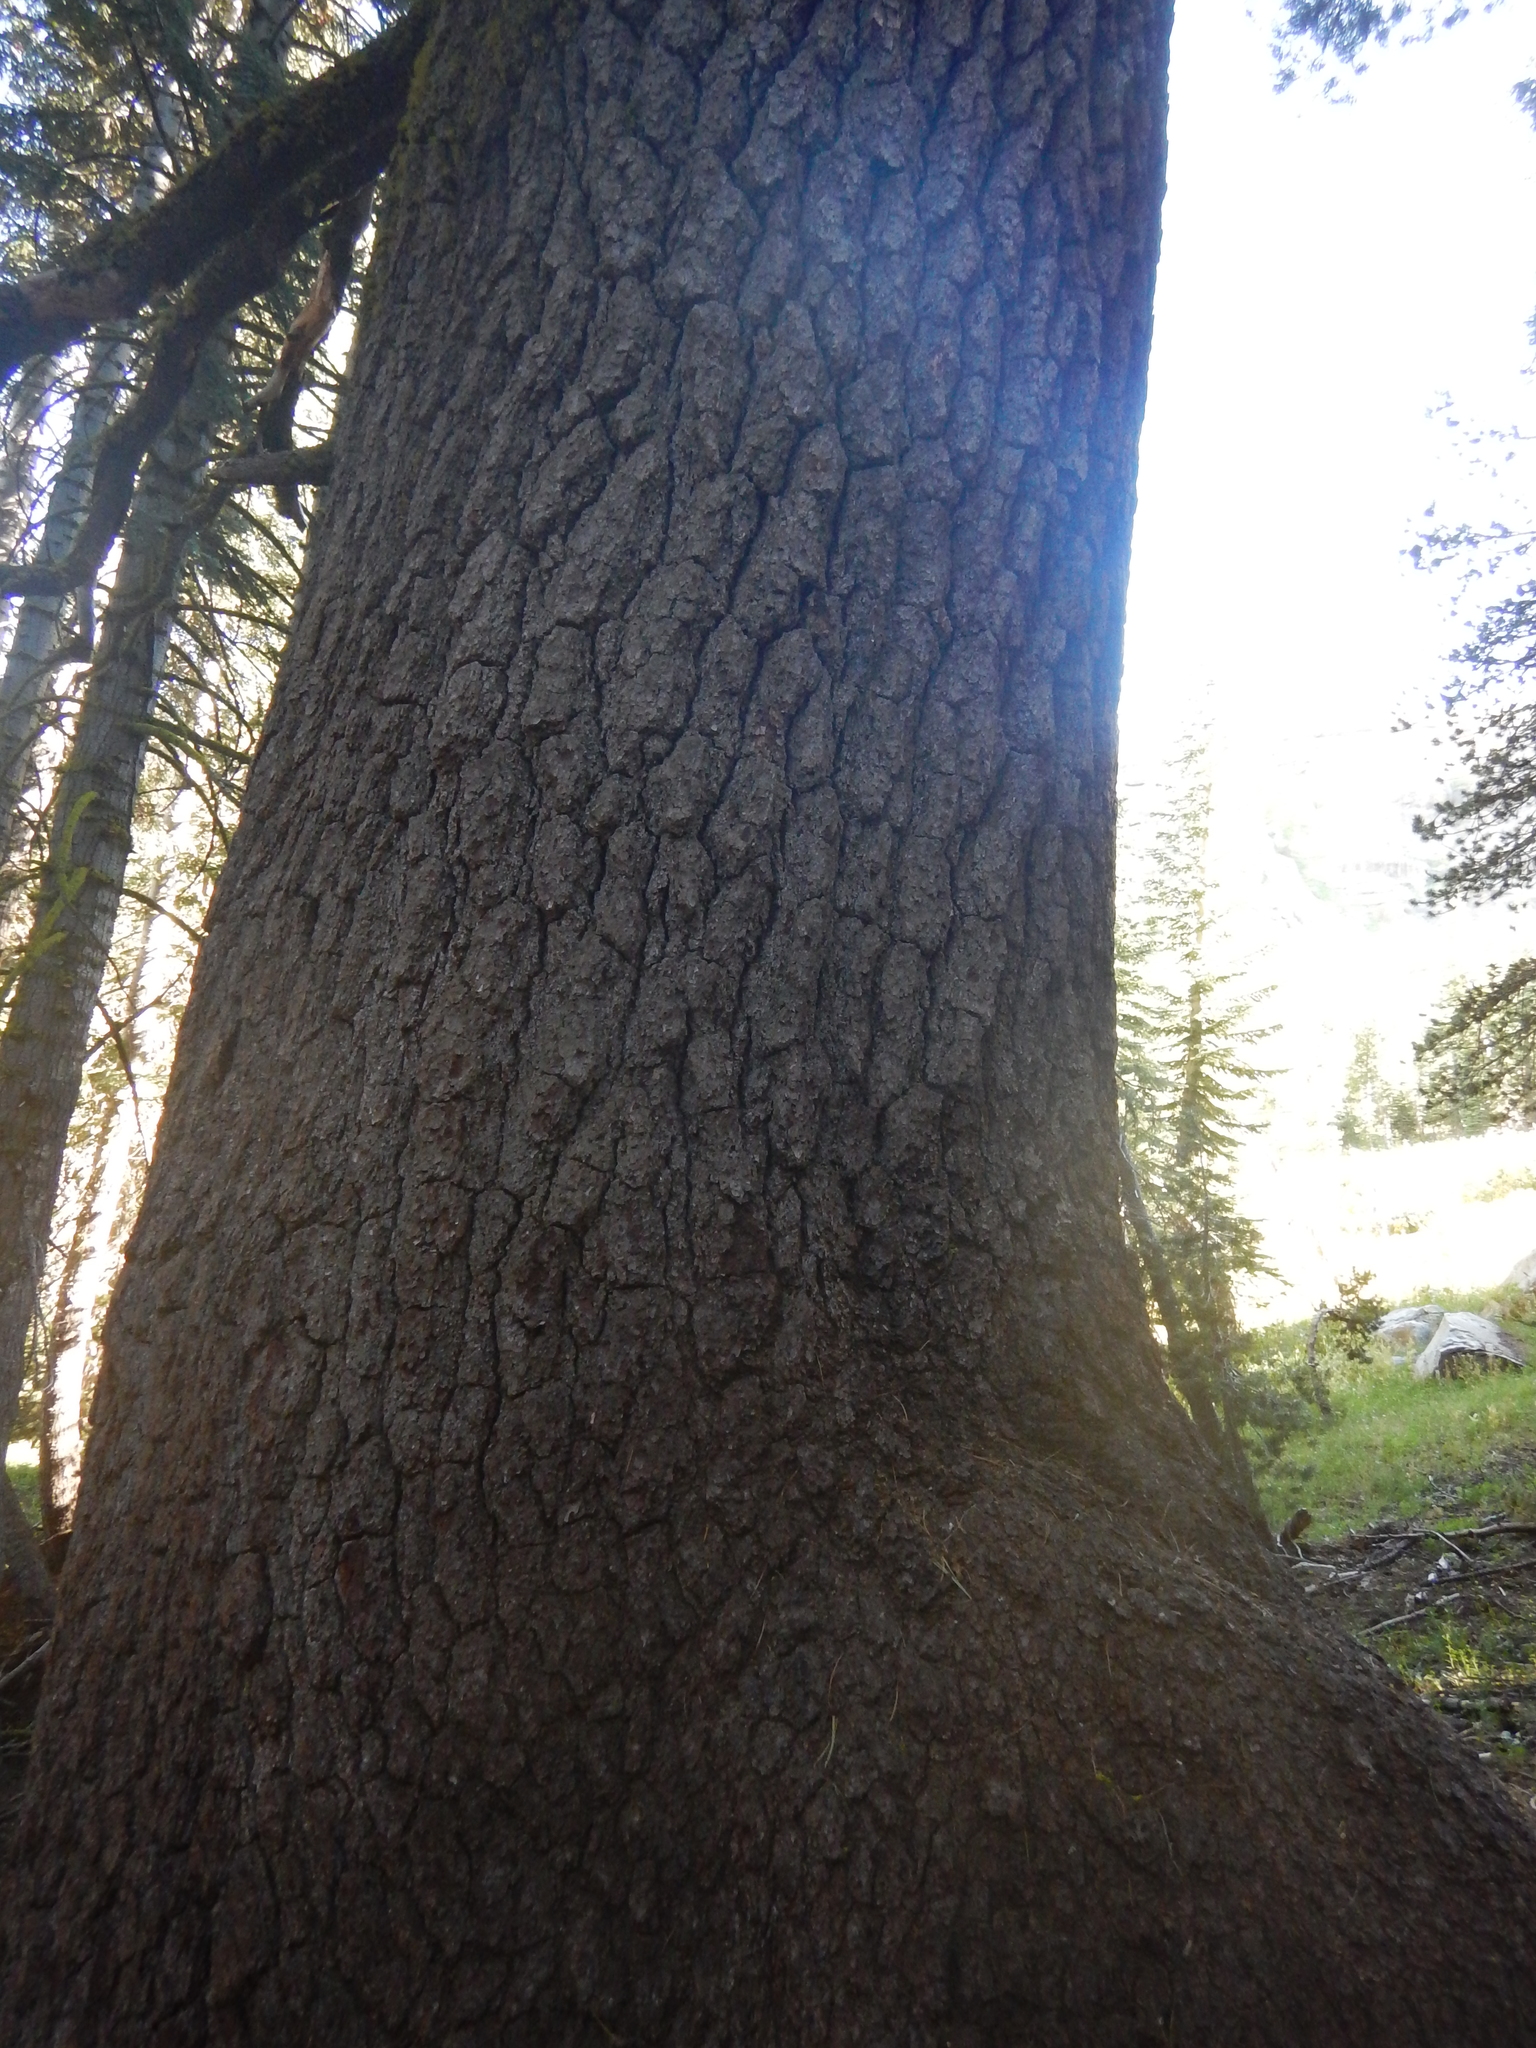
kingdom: Plantae
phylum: Tracheophyta
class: Pinopsida
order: Pinales
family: Pinaceae
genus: Pinus
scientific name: Pinus monticola
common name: Western white pine
